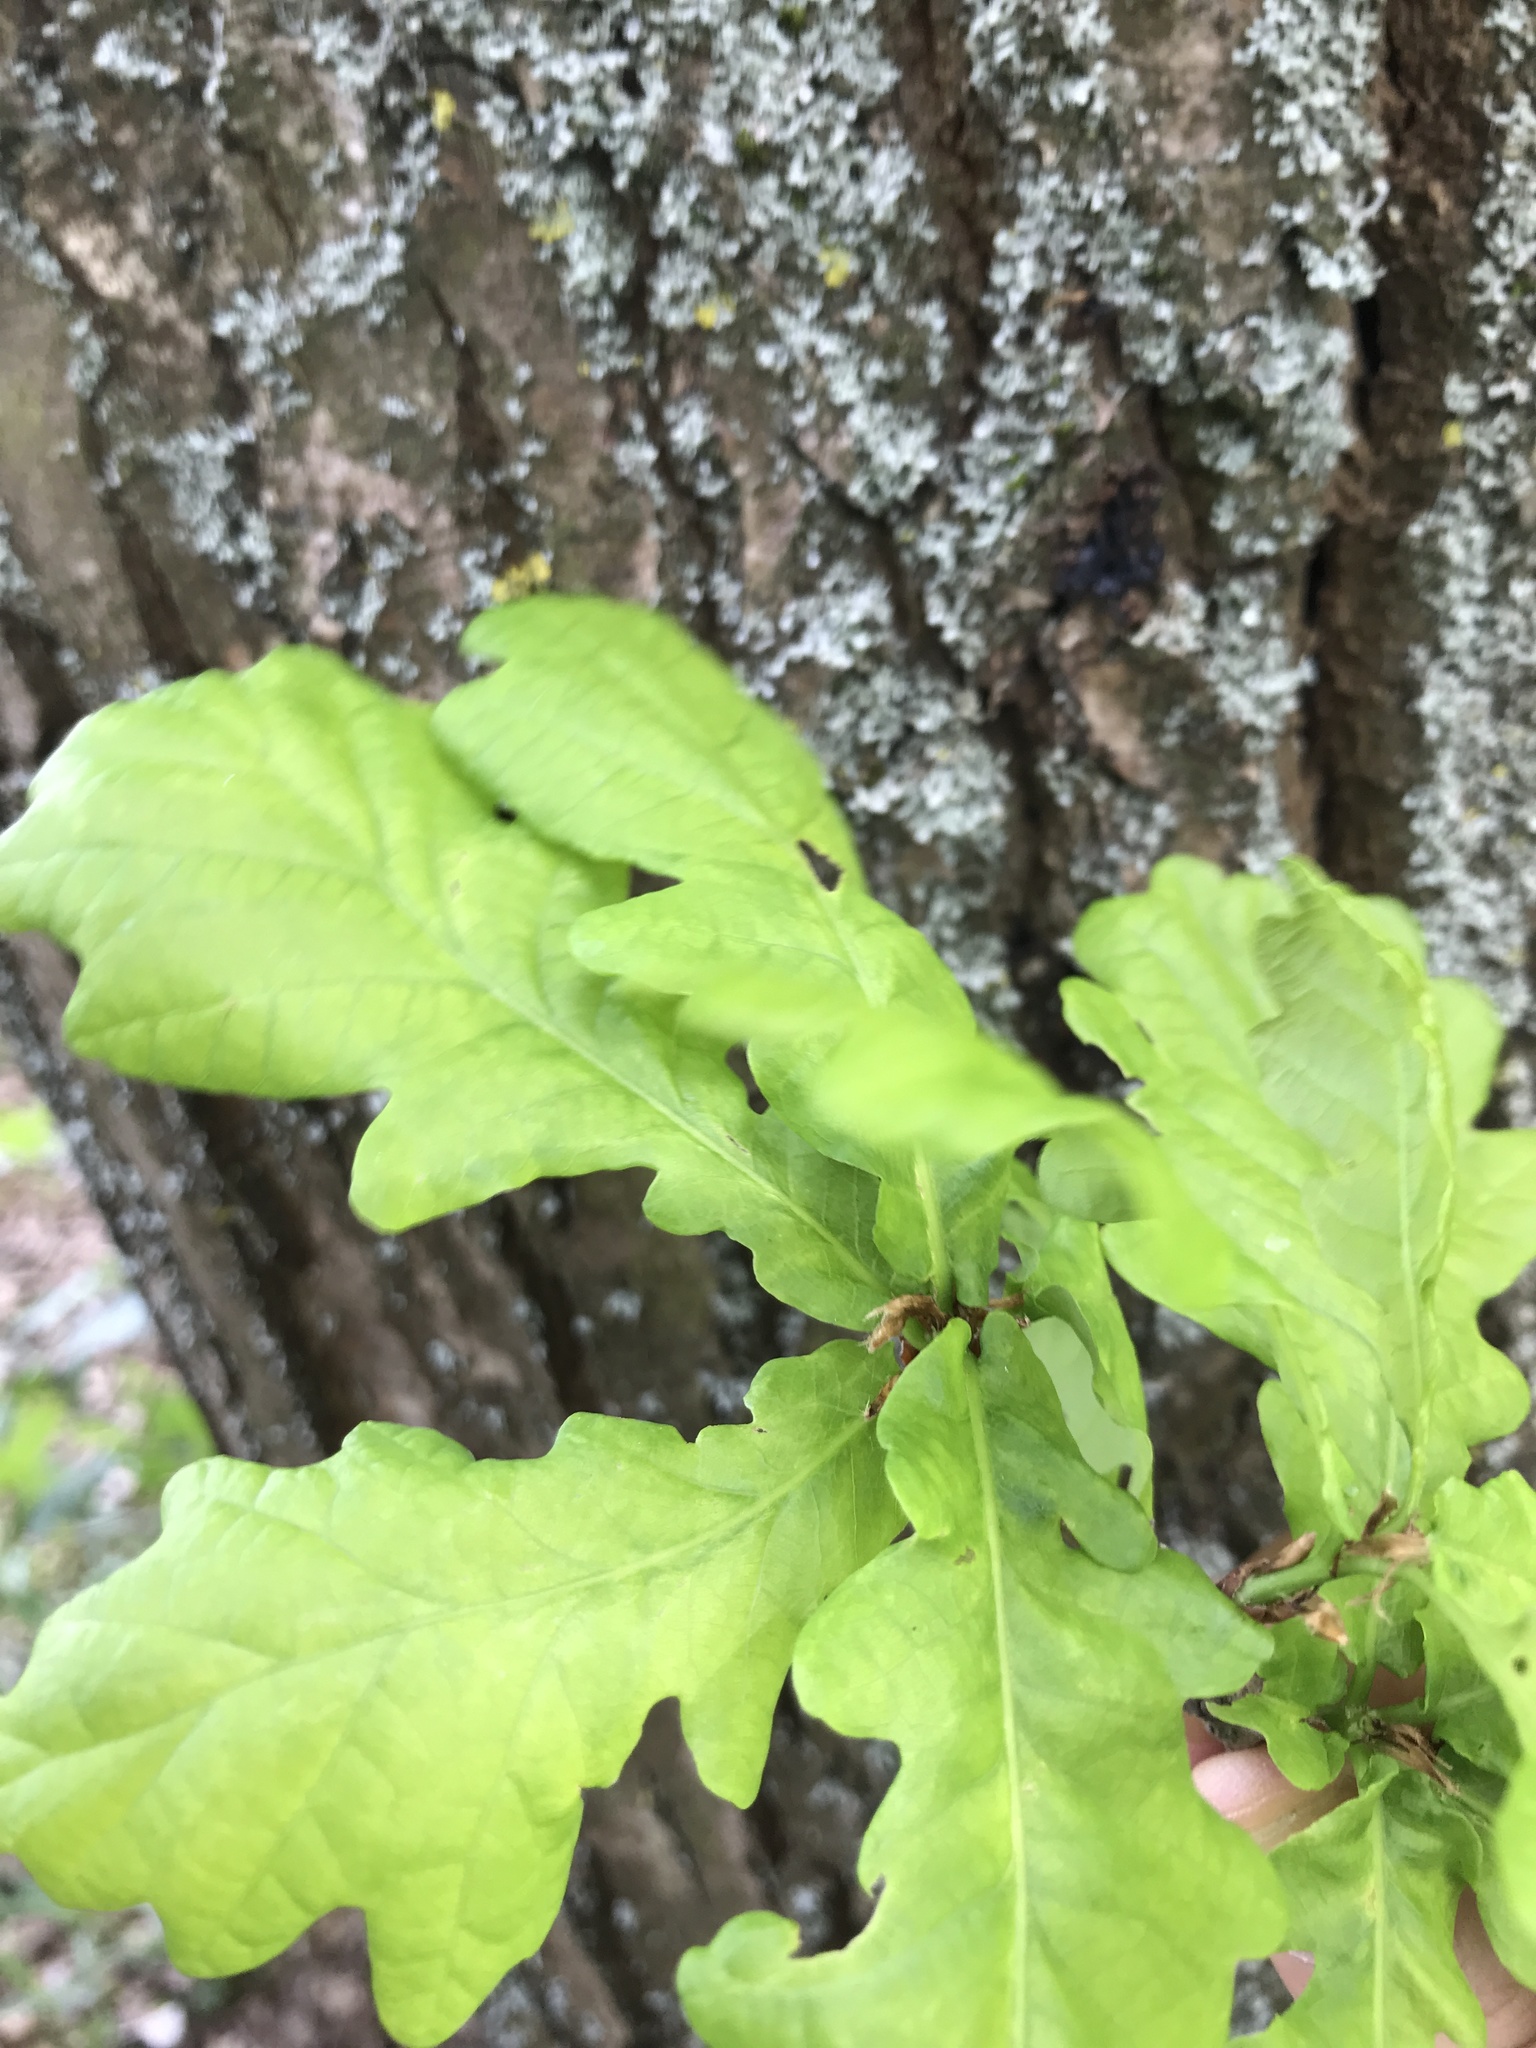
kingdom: Plantae
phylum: Tracheophyta
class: Magnoliopsida
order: Fagales
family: Fagaceae
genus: Quercus
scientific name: Quercus robur
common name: Pedunculate oak
